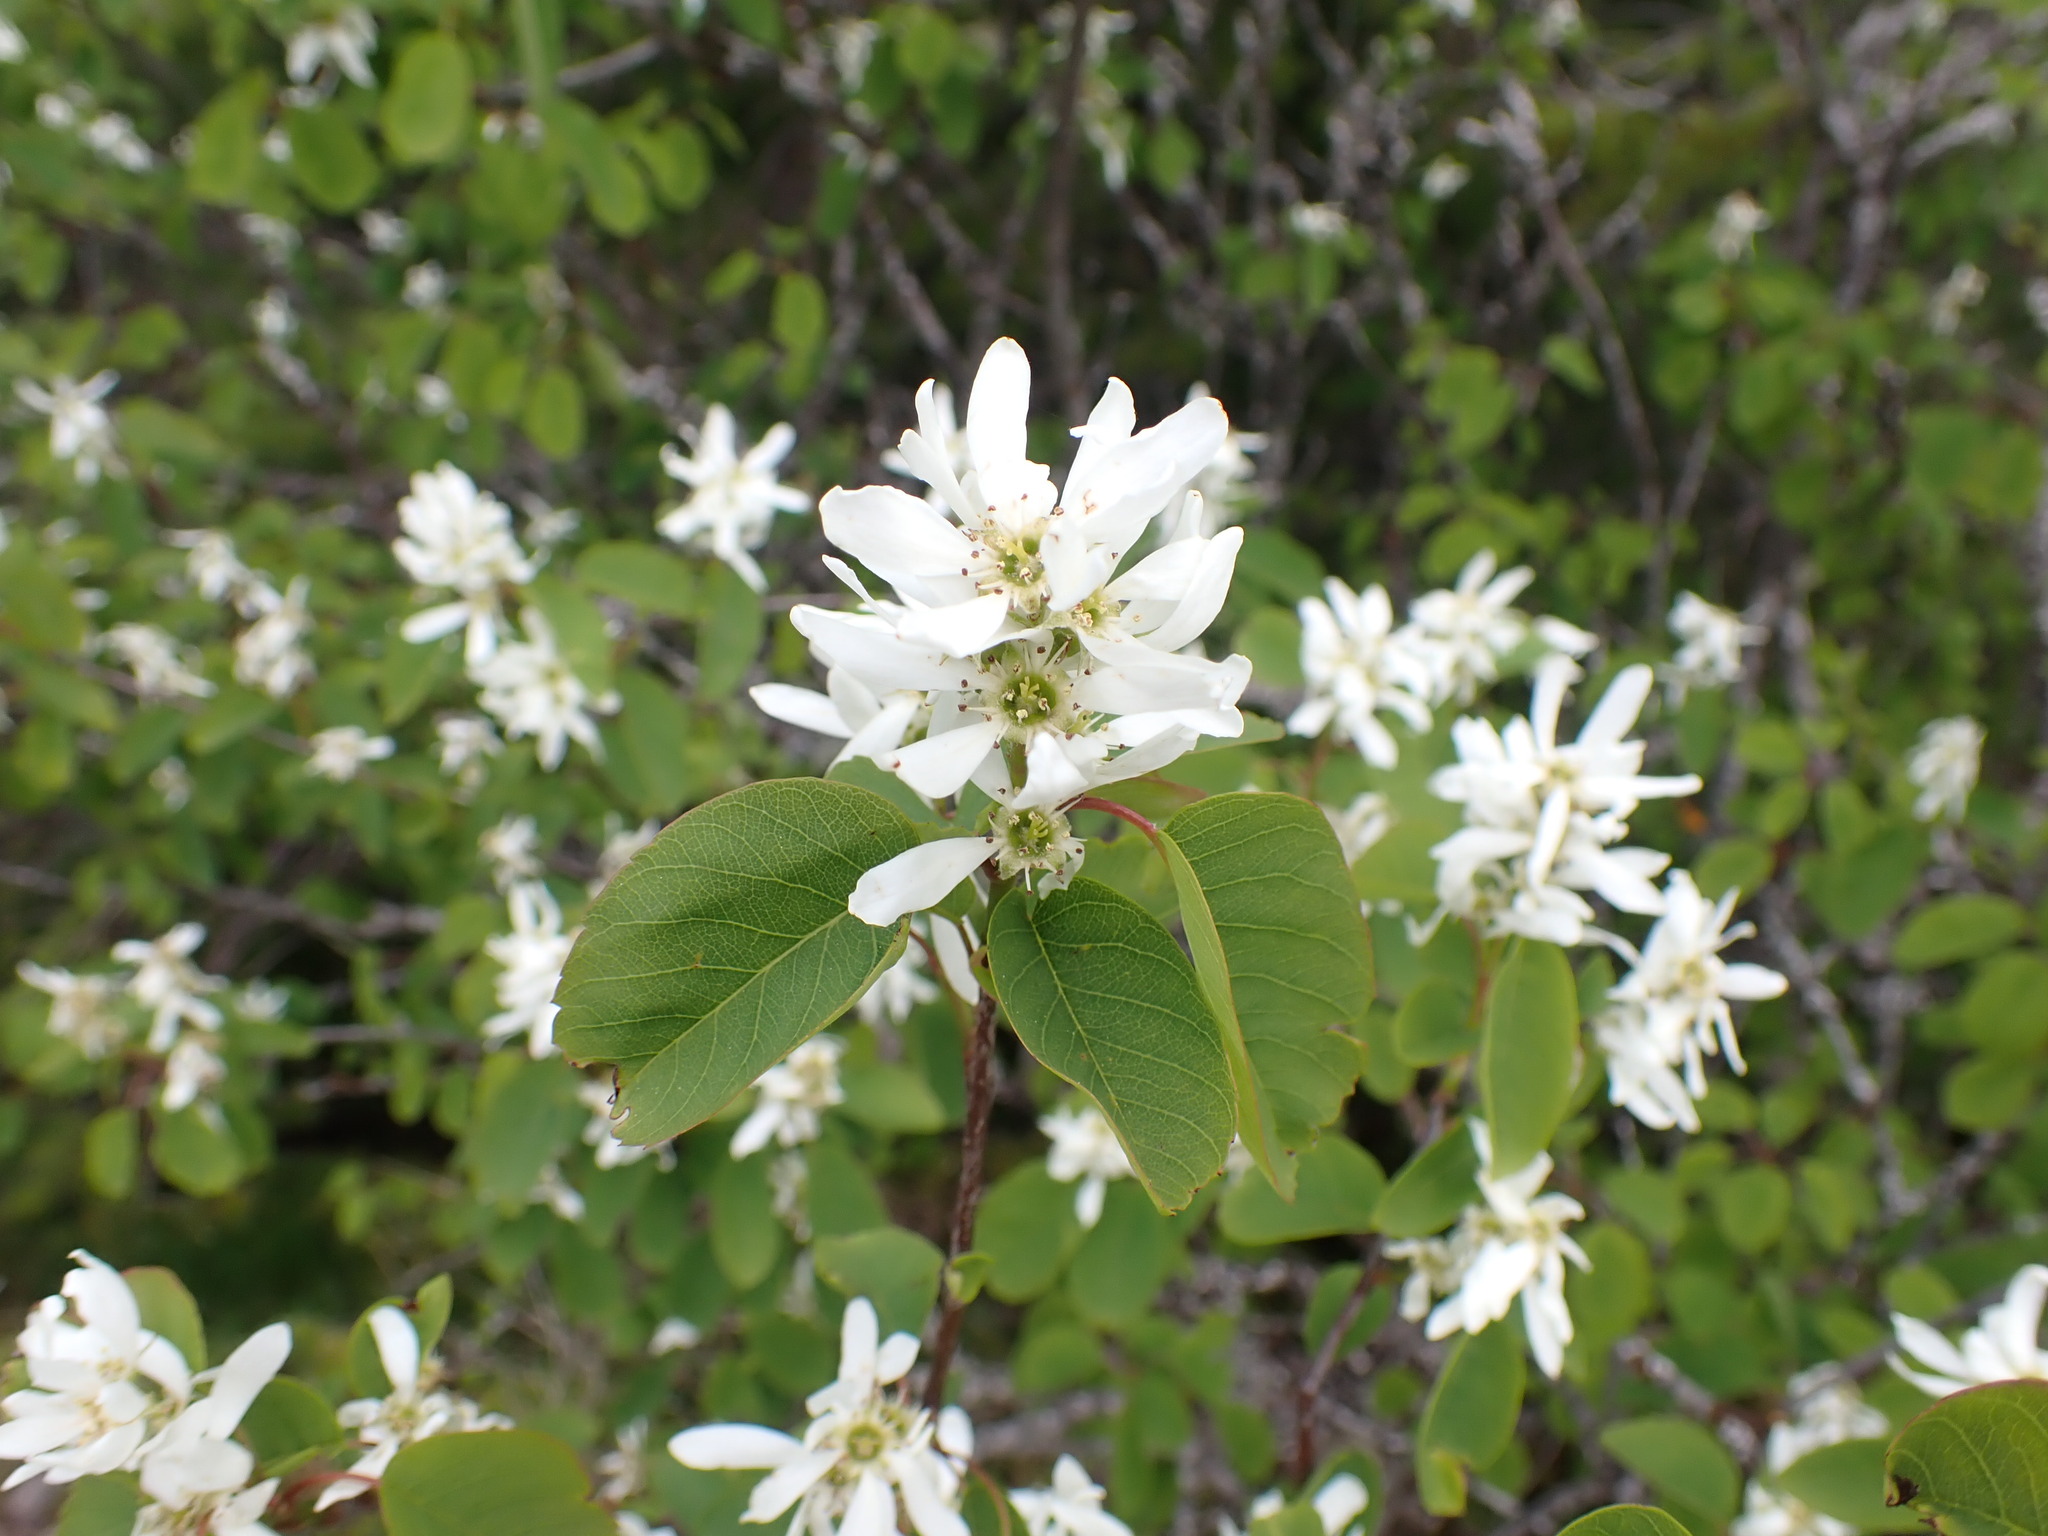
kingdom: Plantae
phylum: Tracheophyta
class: Magnoliopsida
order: Rosales
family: Rosaceae
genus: Amelanchier
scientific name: Amelanchier alnifolia
